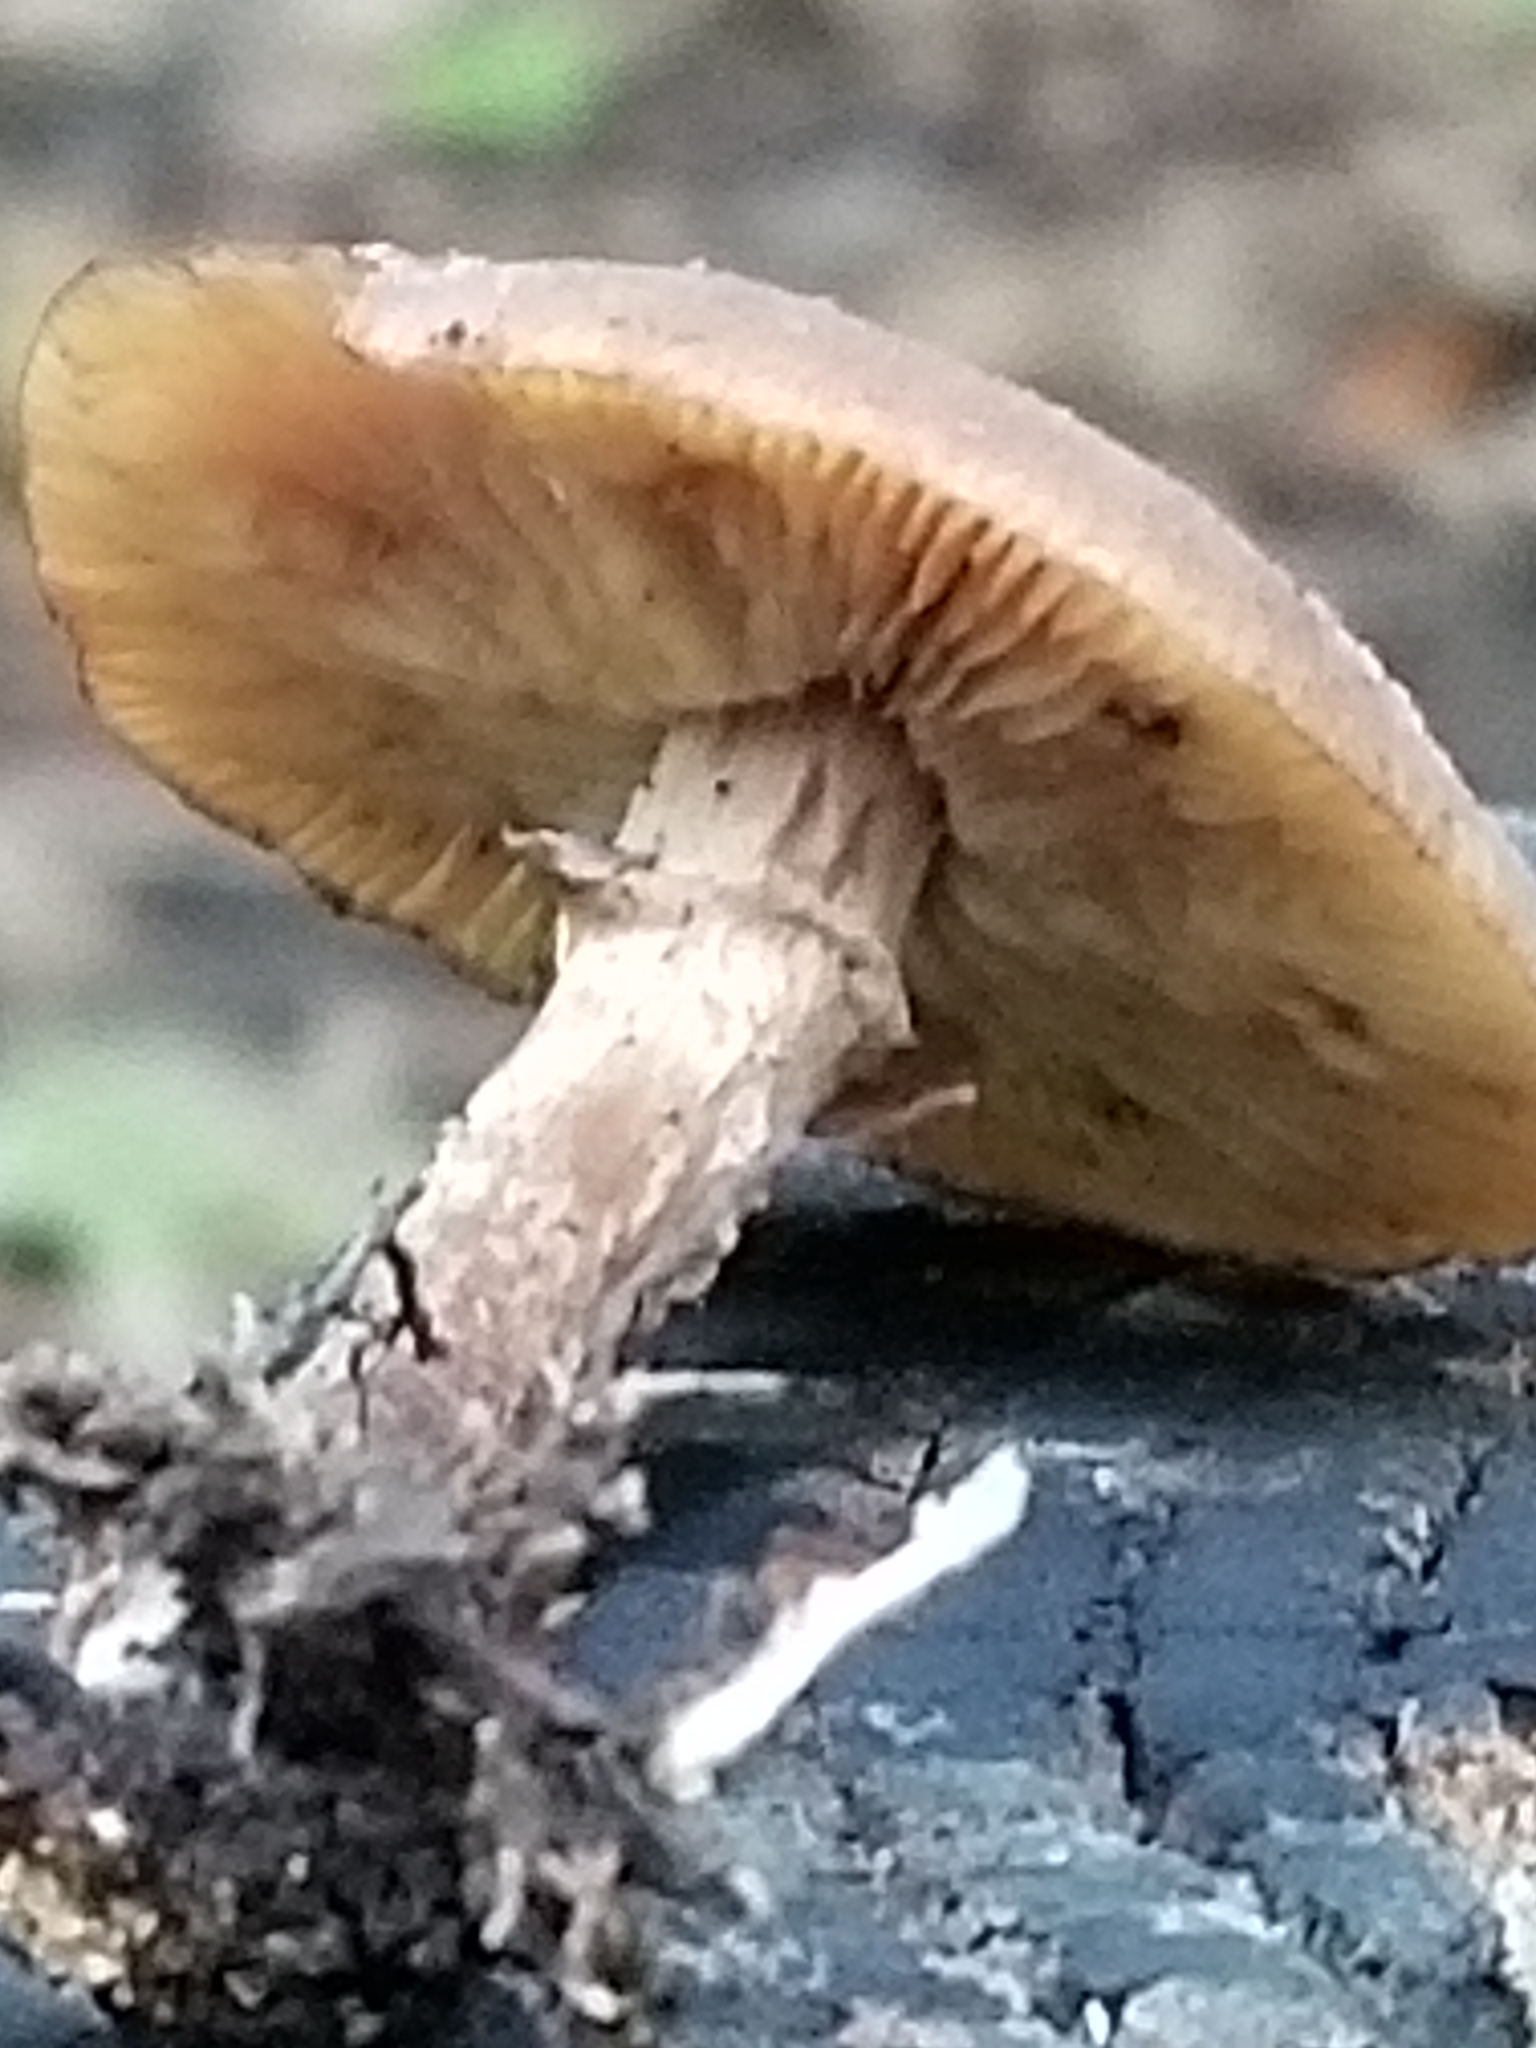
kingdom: Fungi
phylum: Basidiomycota
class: Agaricomycetes
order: Agaricales
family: Physalacriaceae
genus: Armillaria
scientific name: Armillaria mellea
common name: Honey fungus
